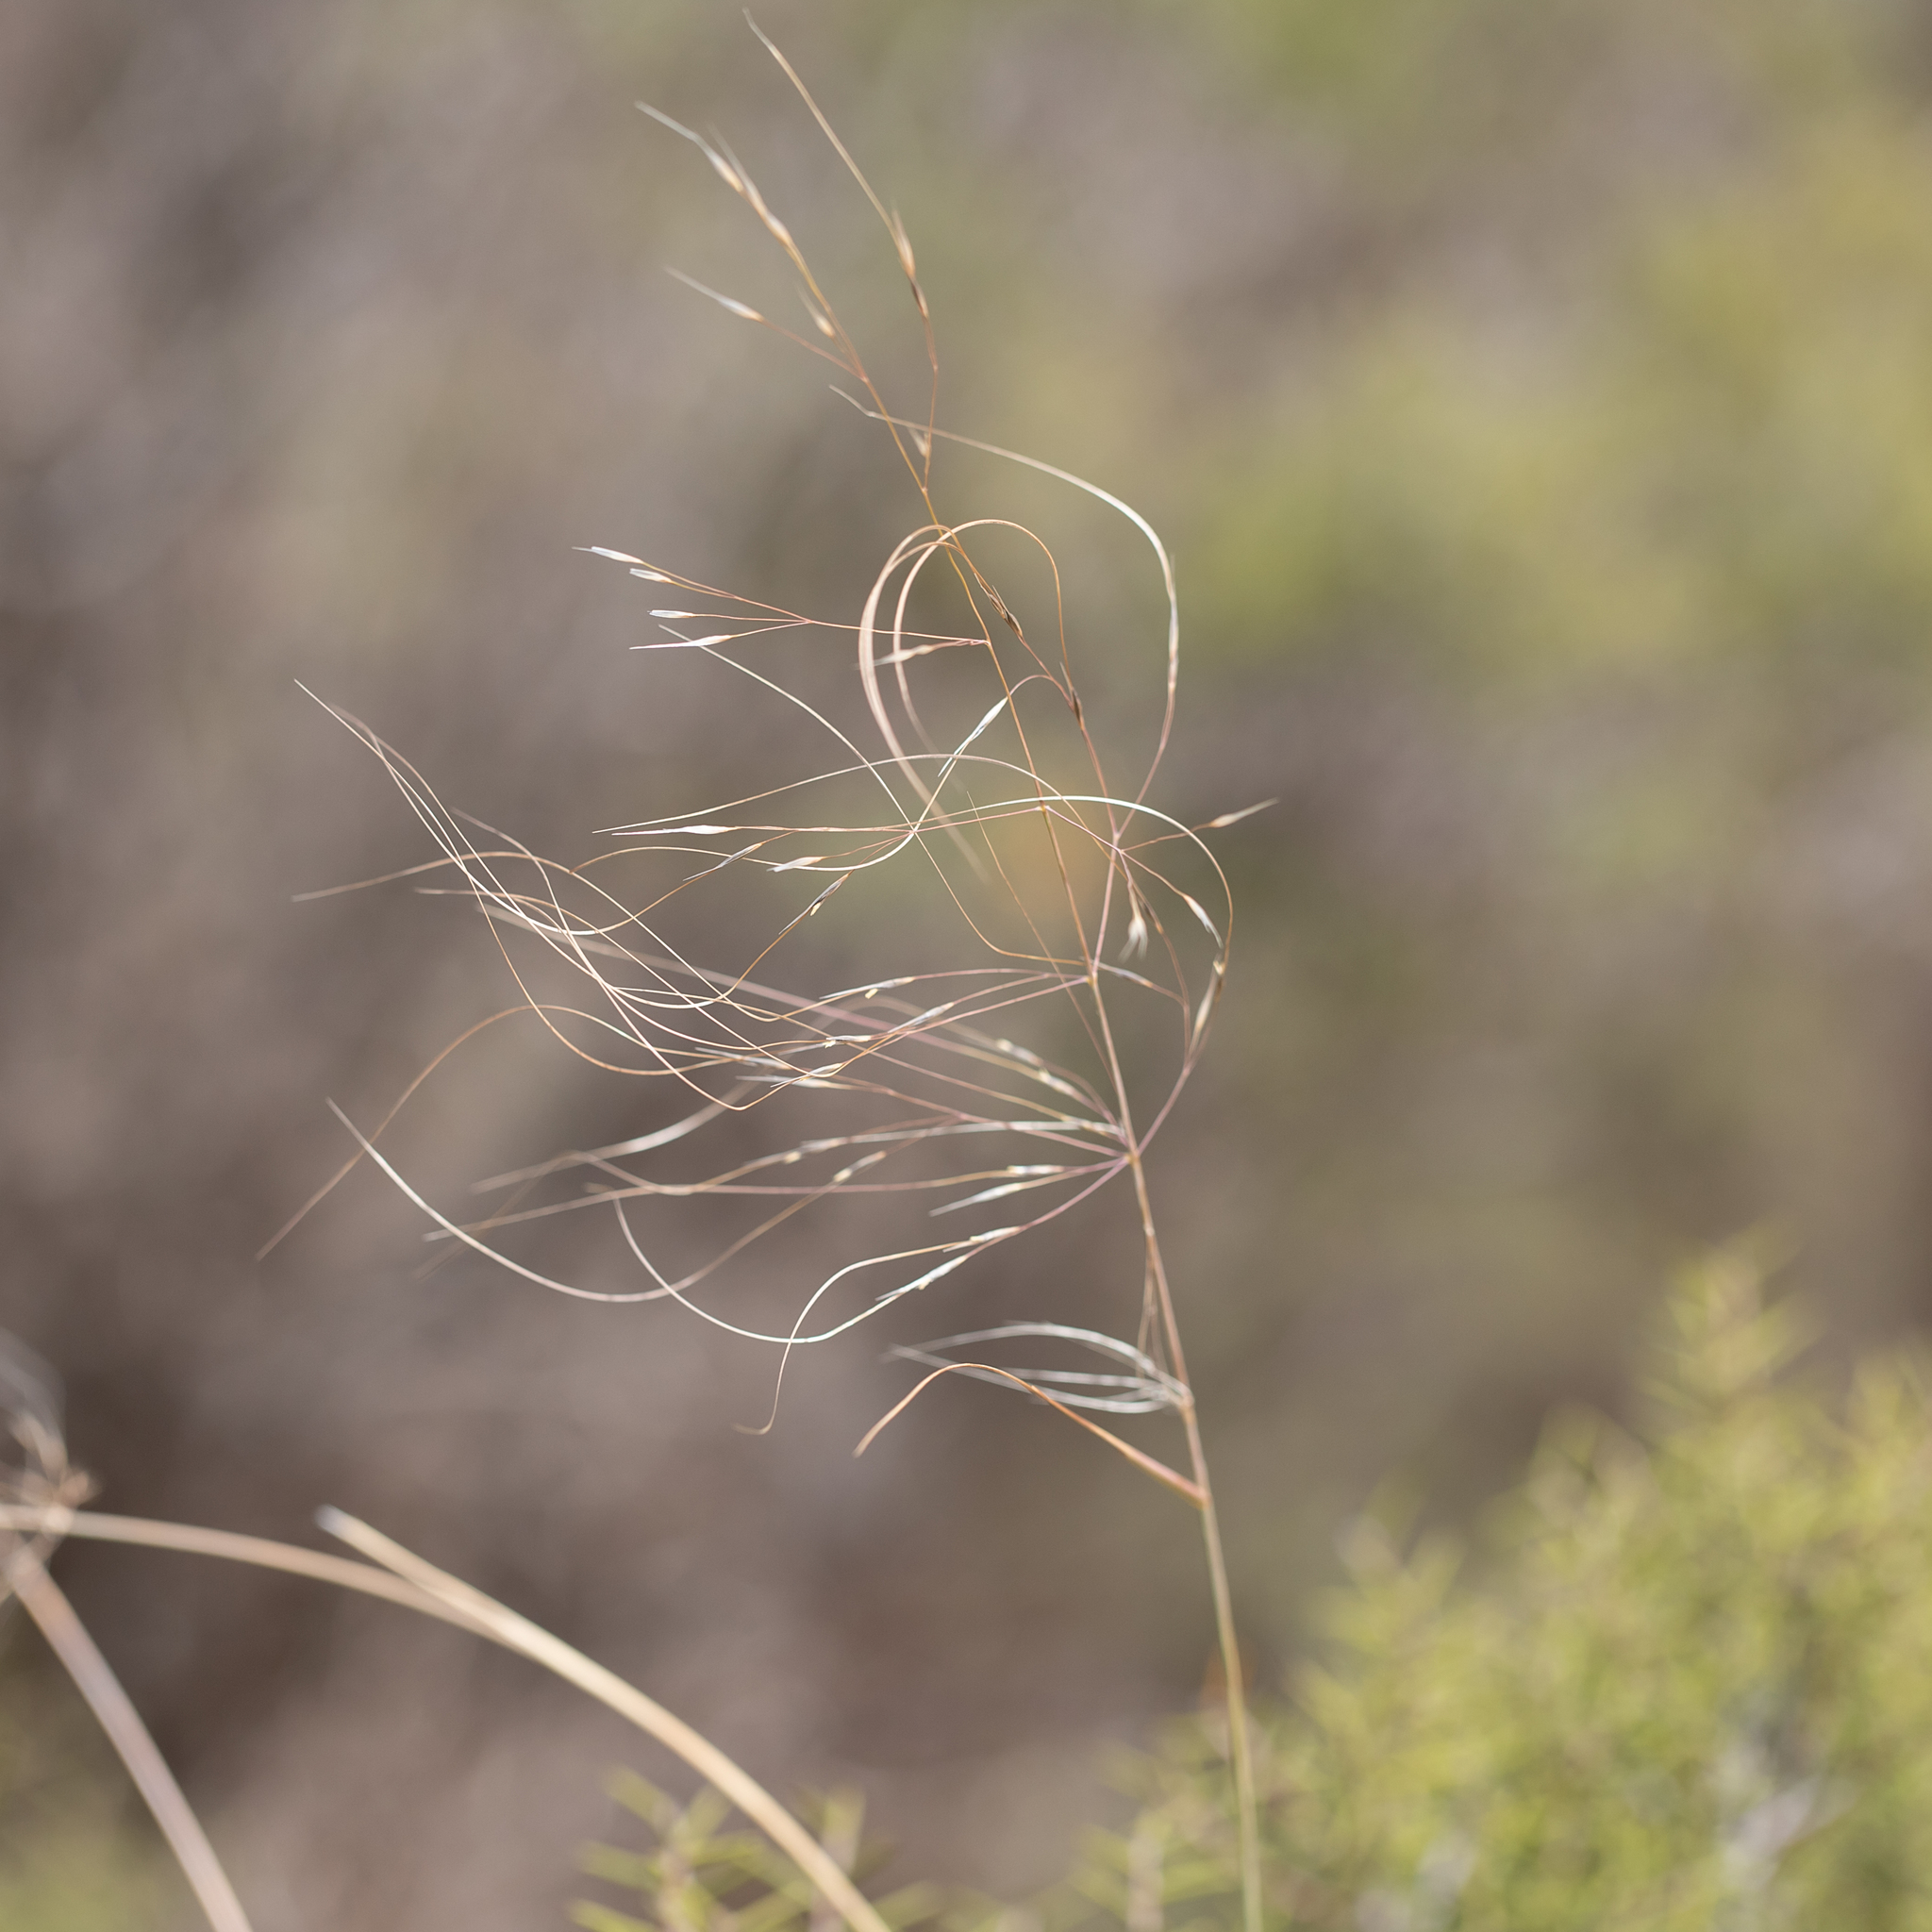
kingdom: Plantae
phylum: Tracheophyta
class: Liliopsida
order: Poales
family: Poaceae
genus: Austrostipa
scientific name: Austrostipa acrociliata
